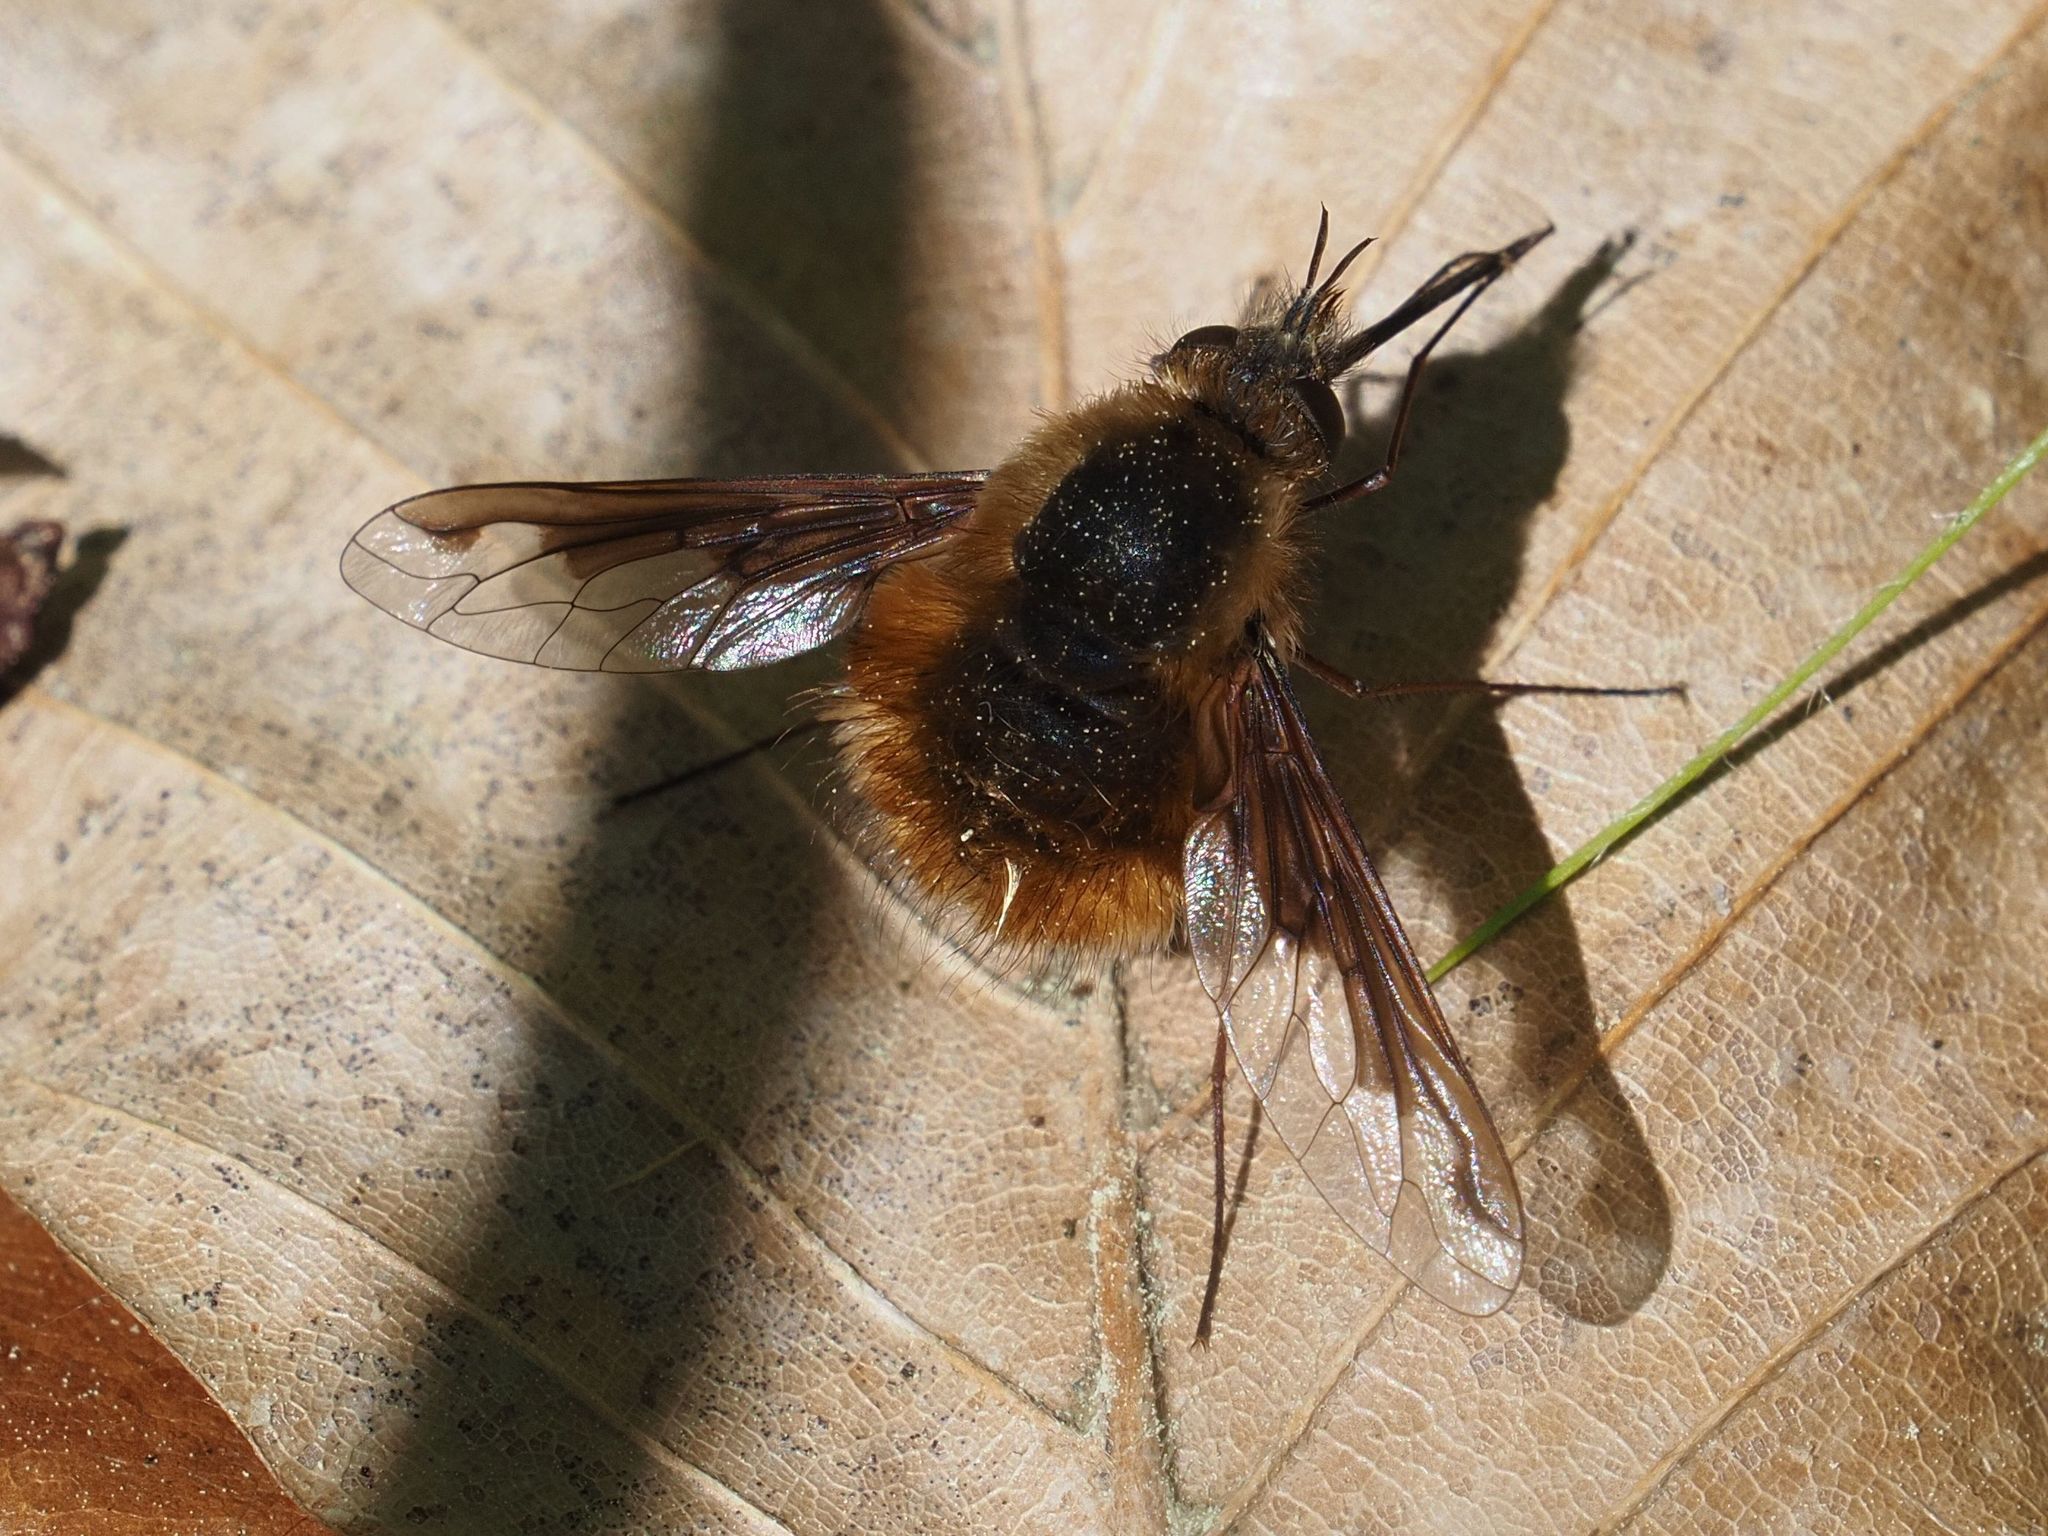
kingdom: Animalia
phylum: Arthropoda
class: Insecta
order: Diptera
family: Bombyliidae
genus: Bombylius
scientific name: Bombylius major
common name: Bee fly
